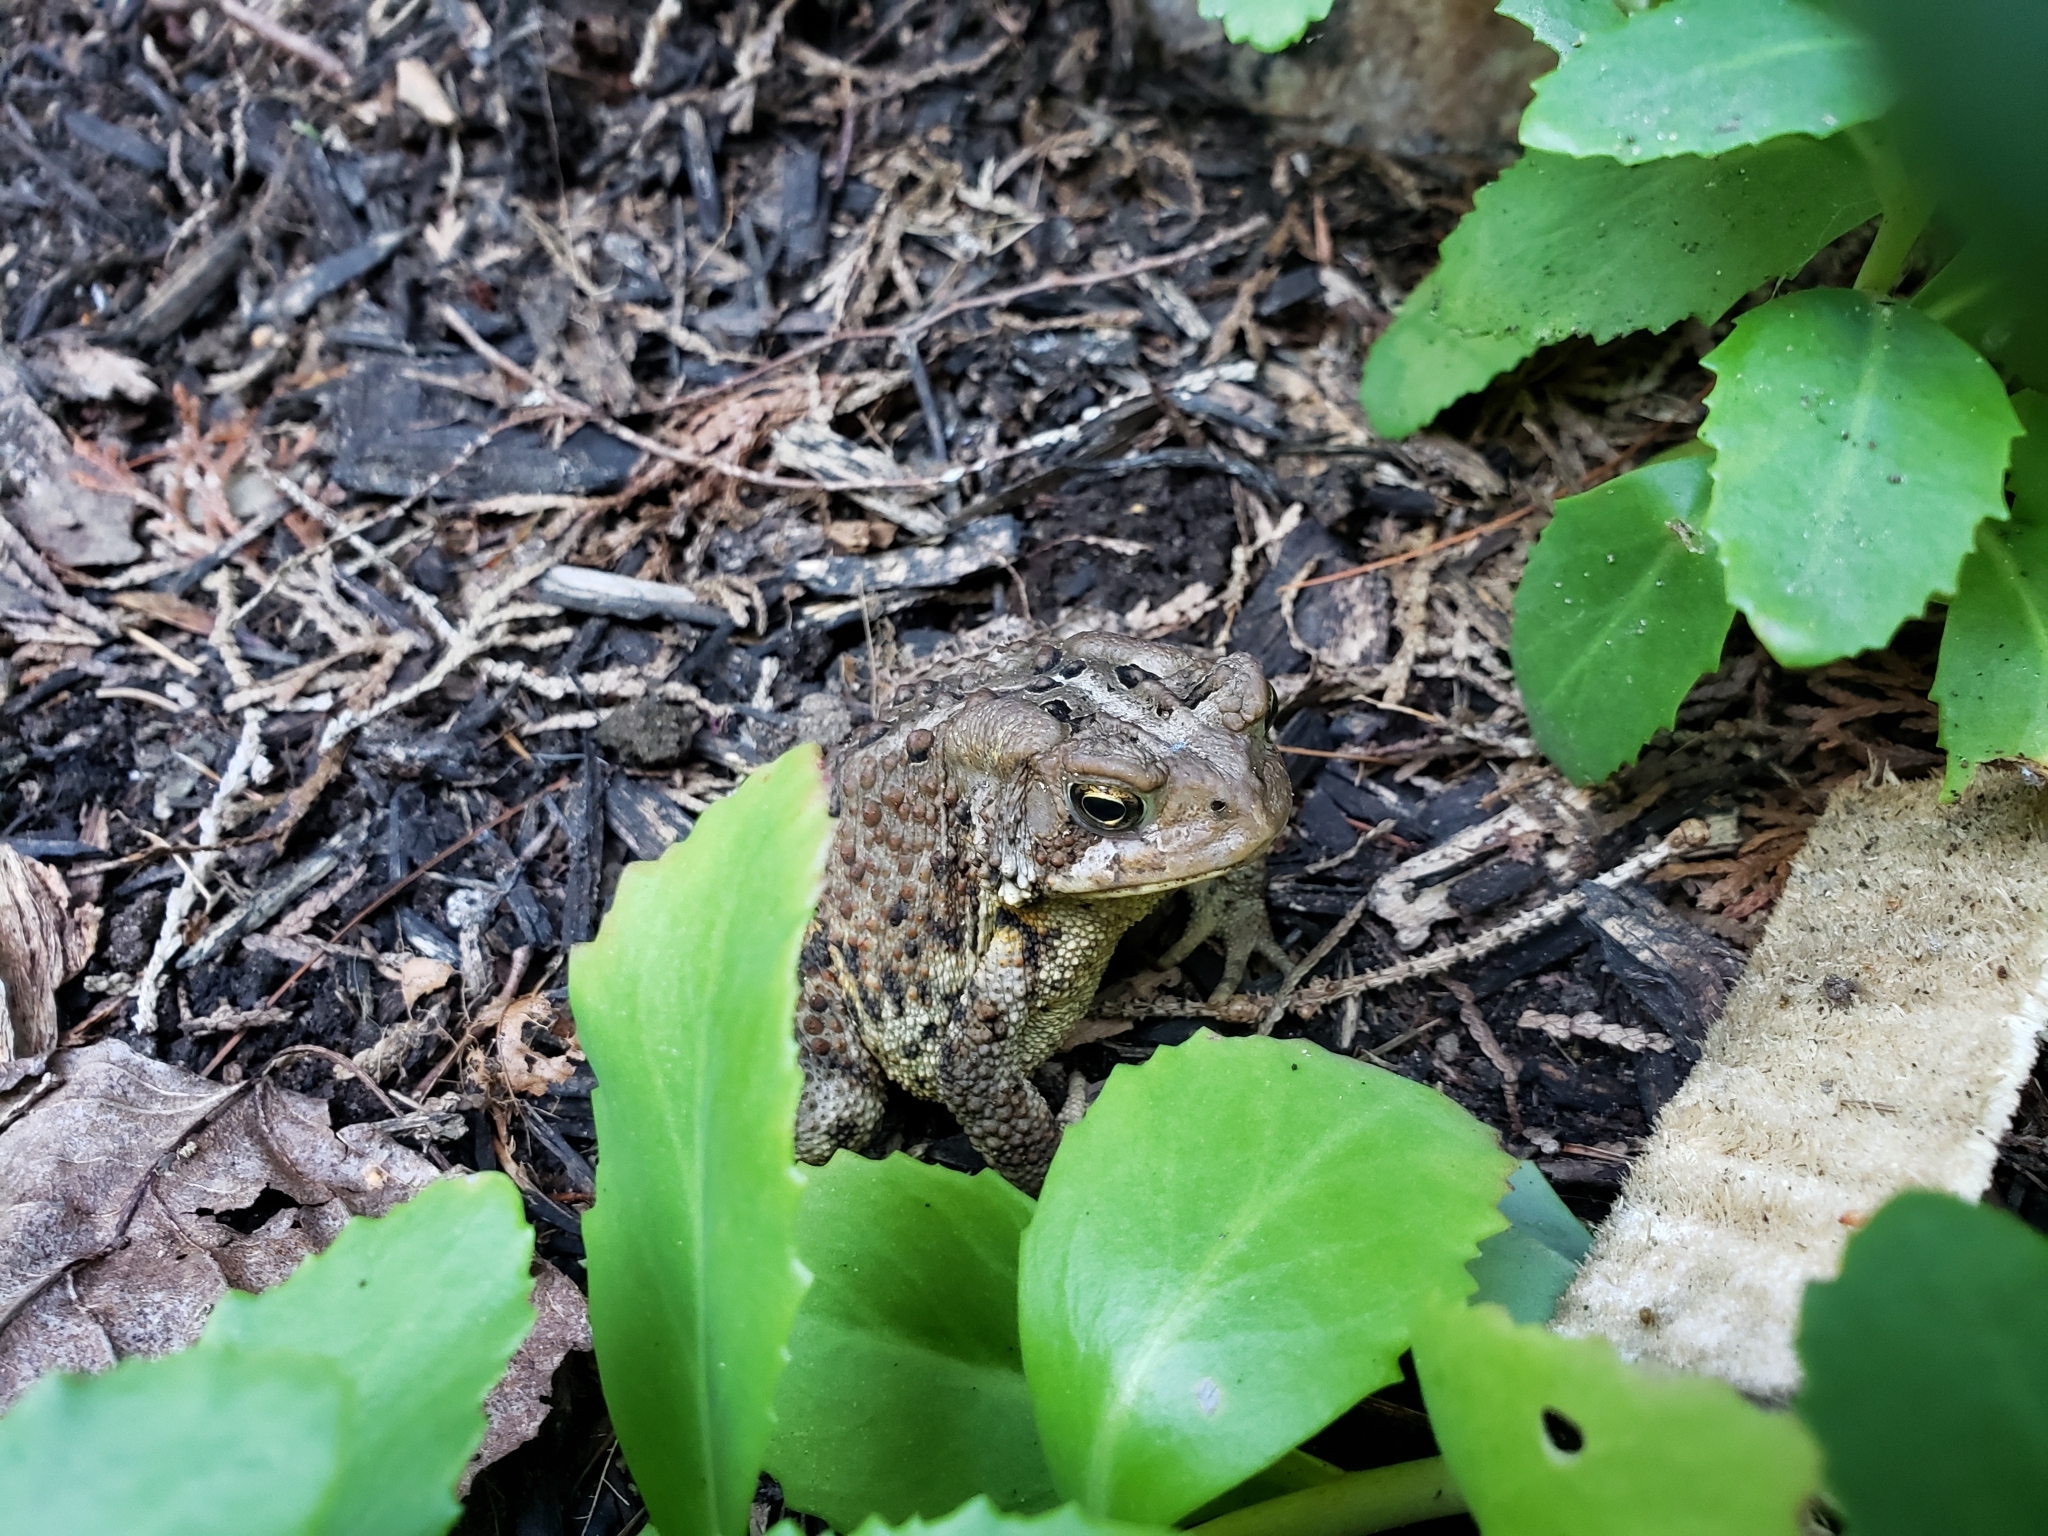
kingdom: Animalia
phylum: Chordata
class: Amphibia
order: Anura
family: Bufonidae
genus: Anaxyrus
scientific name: Anaxyrus americanus
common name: American toad
